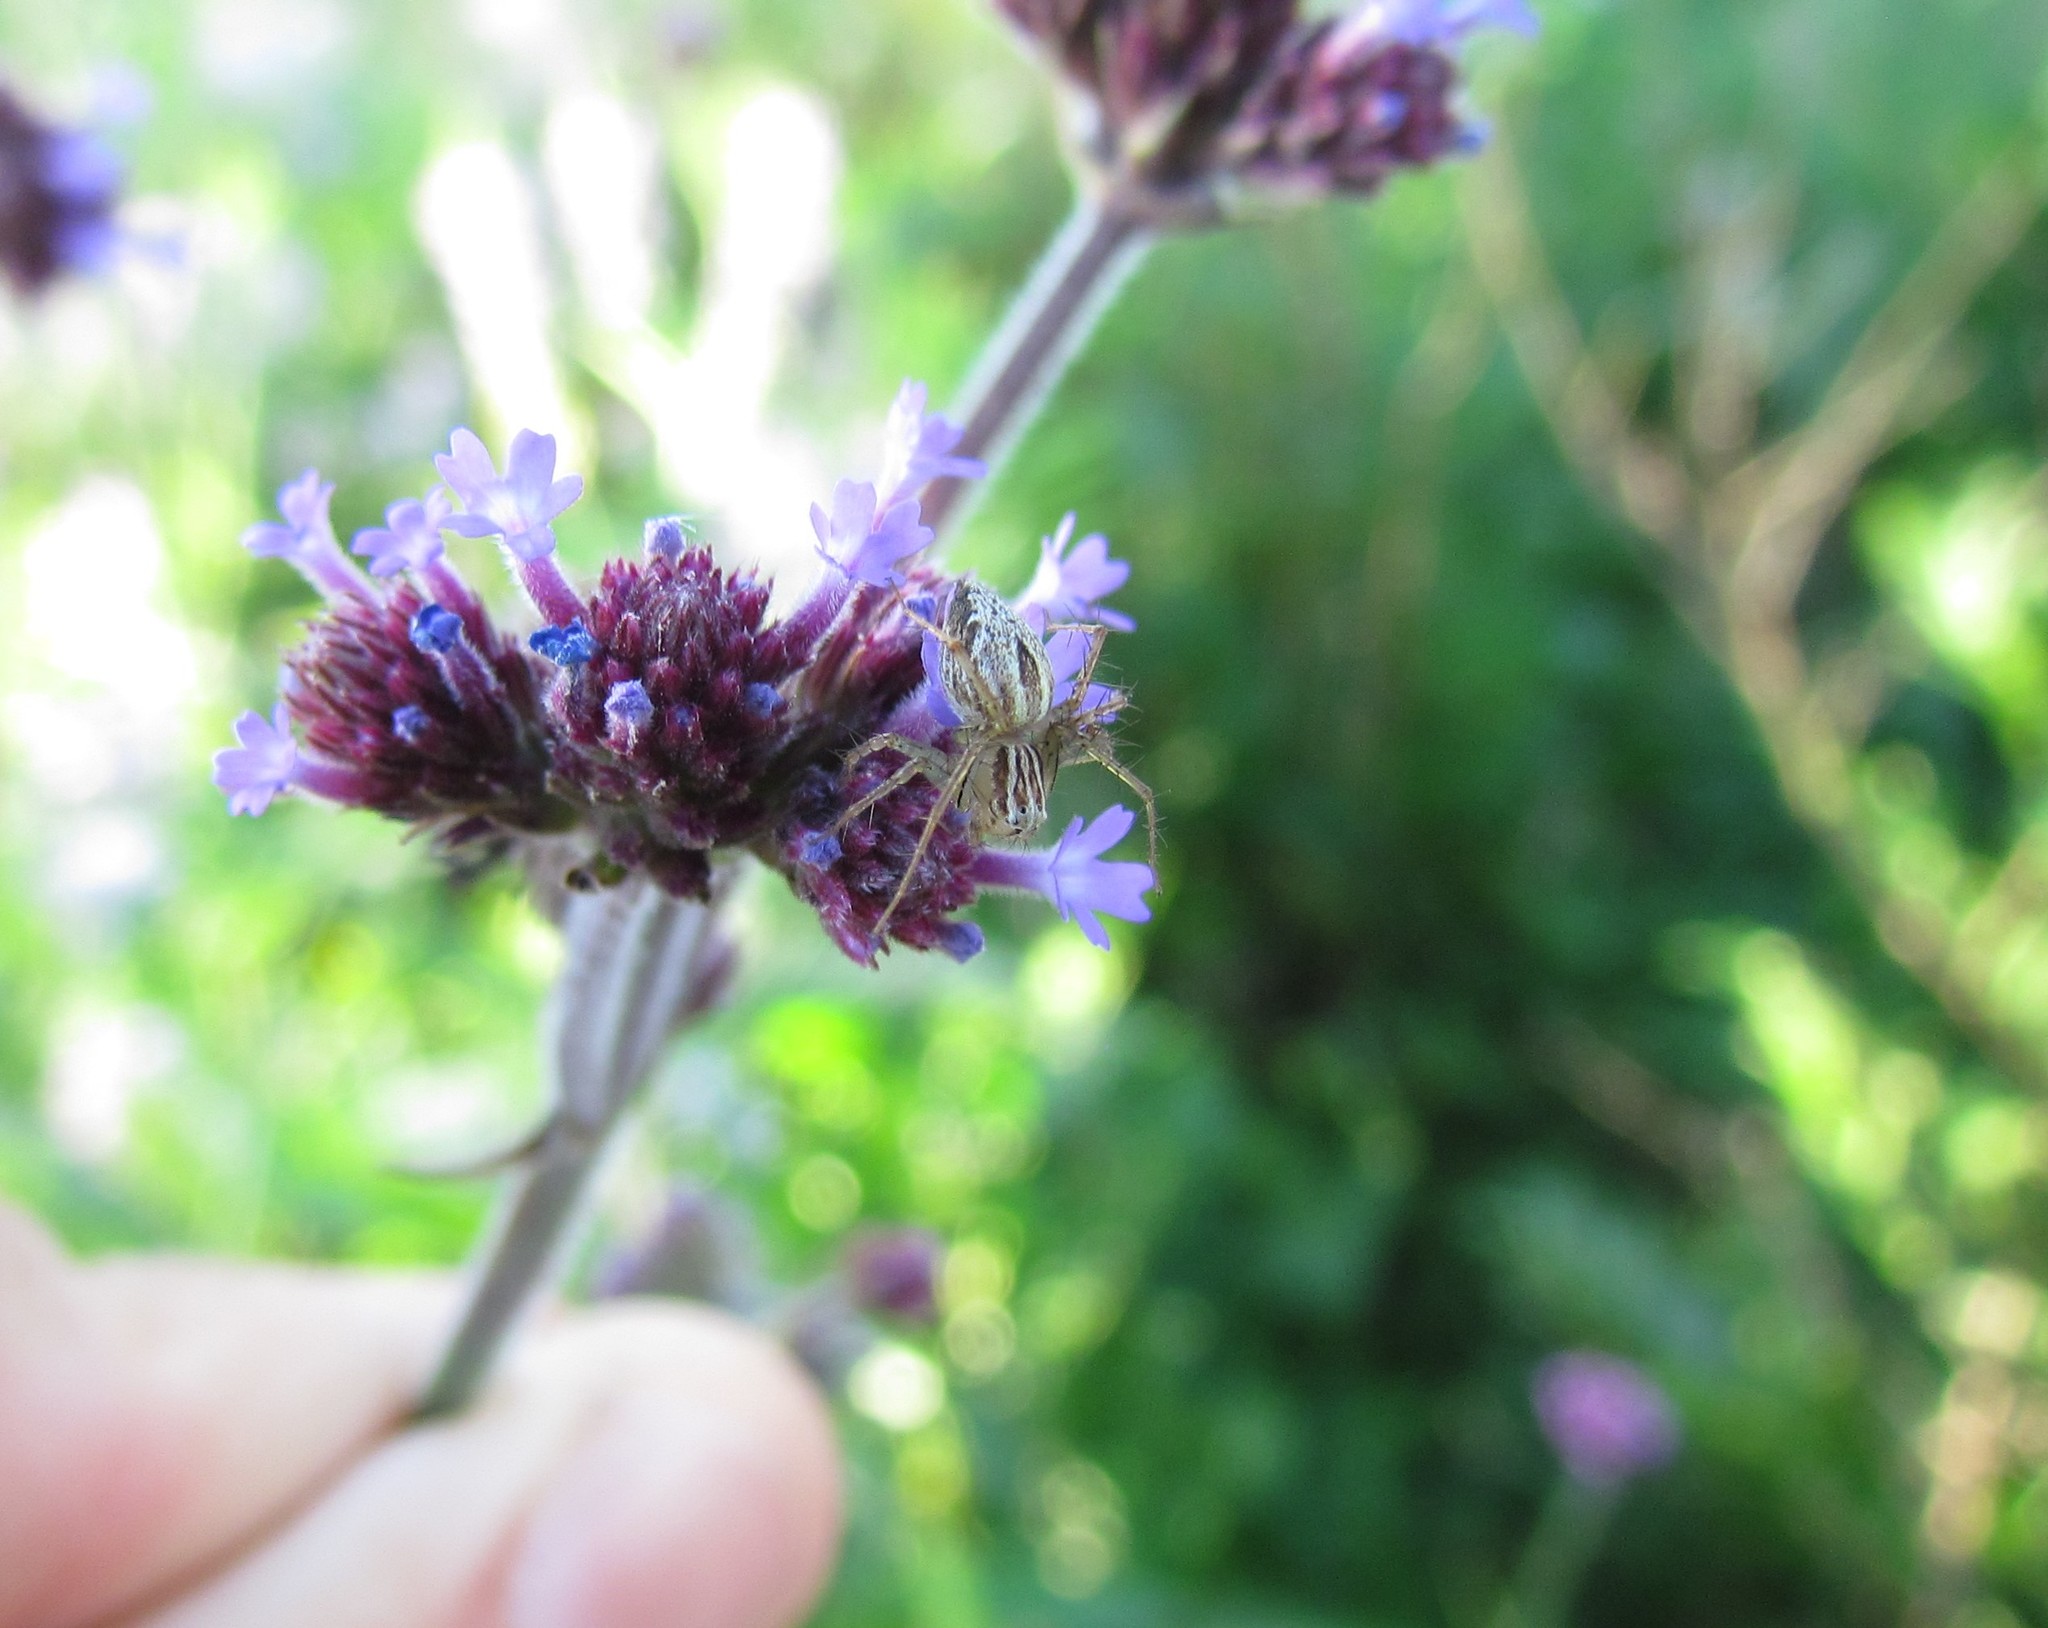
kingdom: Animalia
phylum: Arthropoda
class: Arachnida
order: Araneae
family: Oxyopidae
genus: Oxyopes
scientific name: Oxyopes salticus
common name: Lynx spiders
